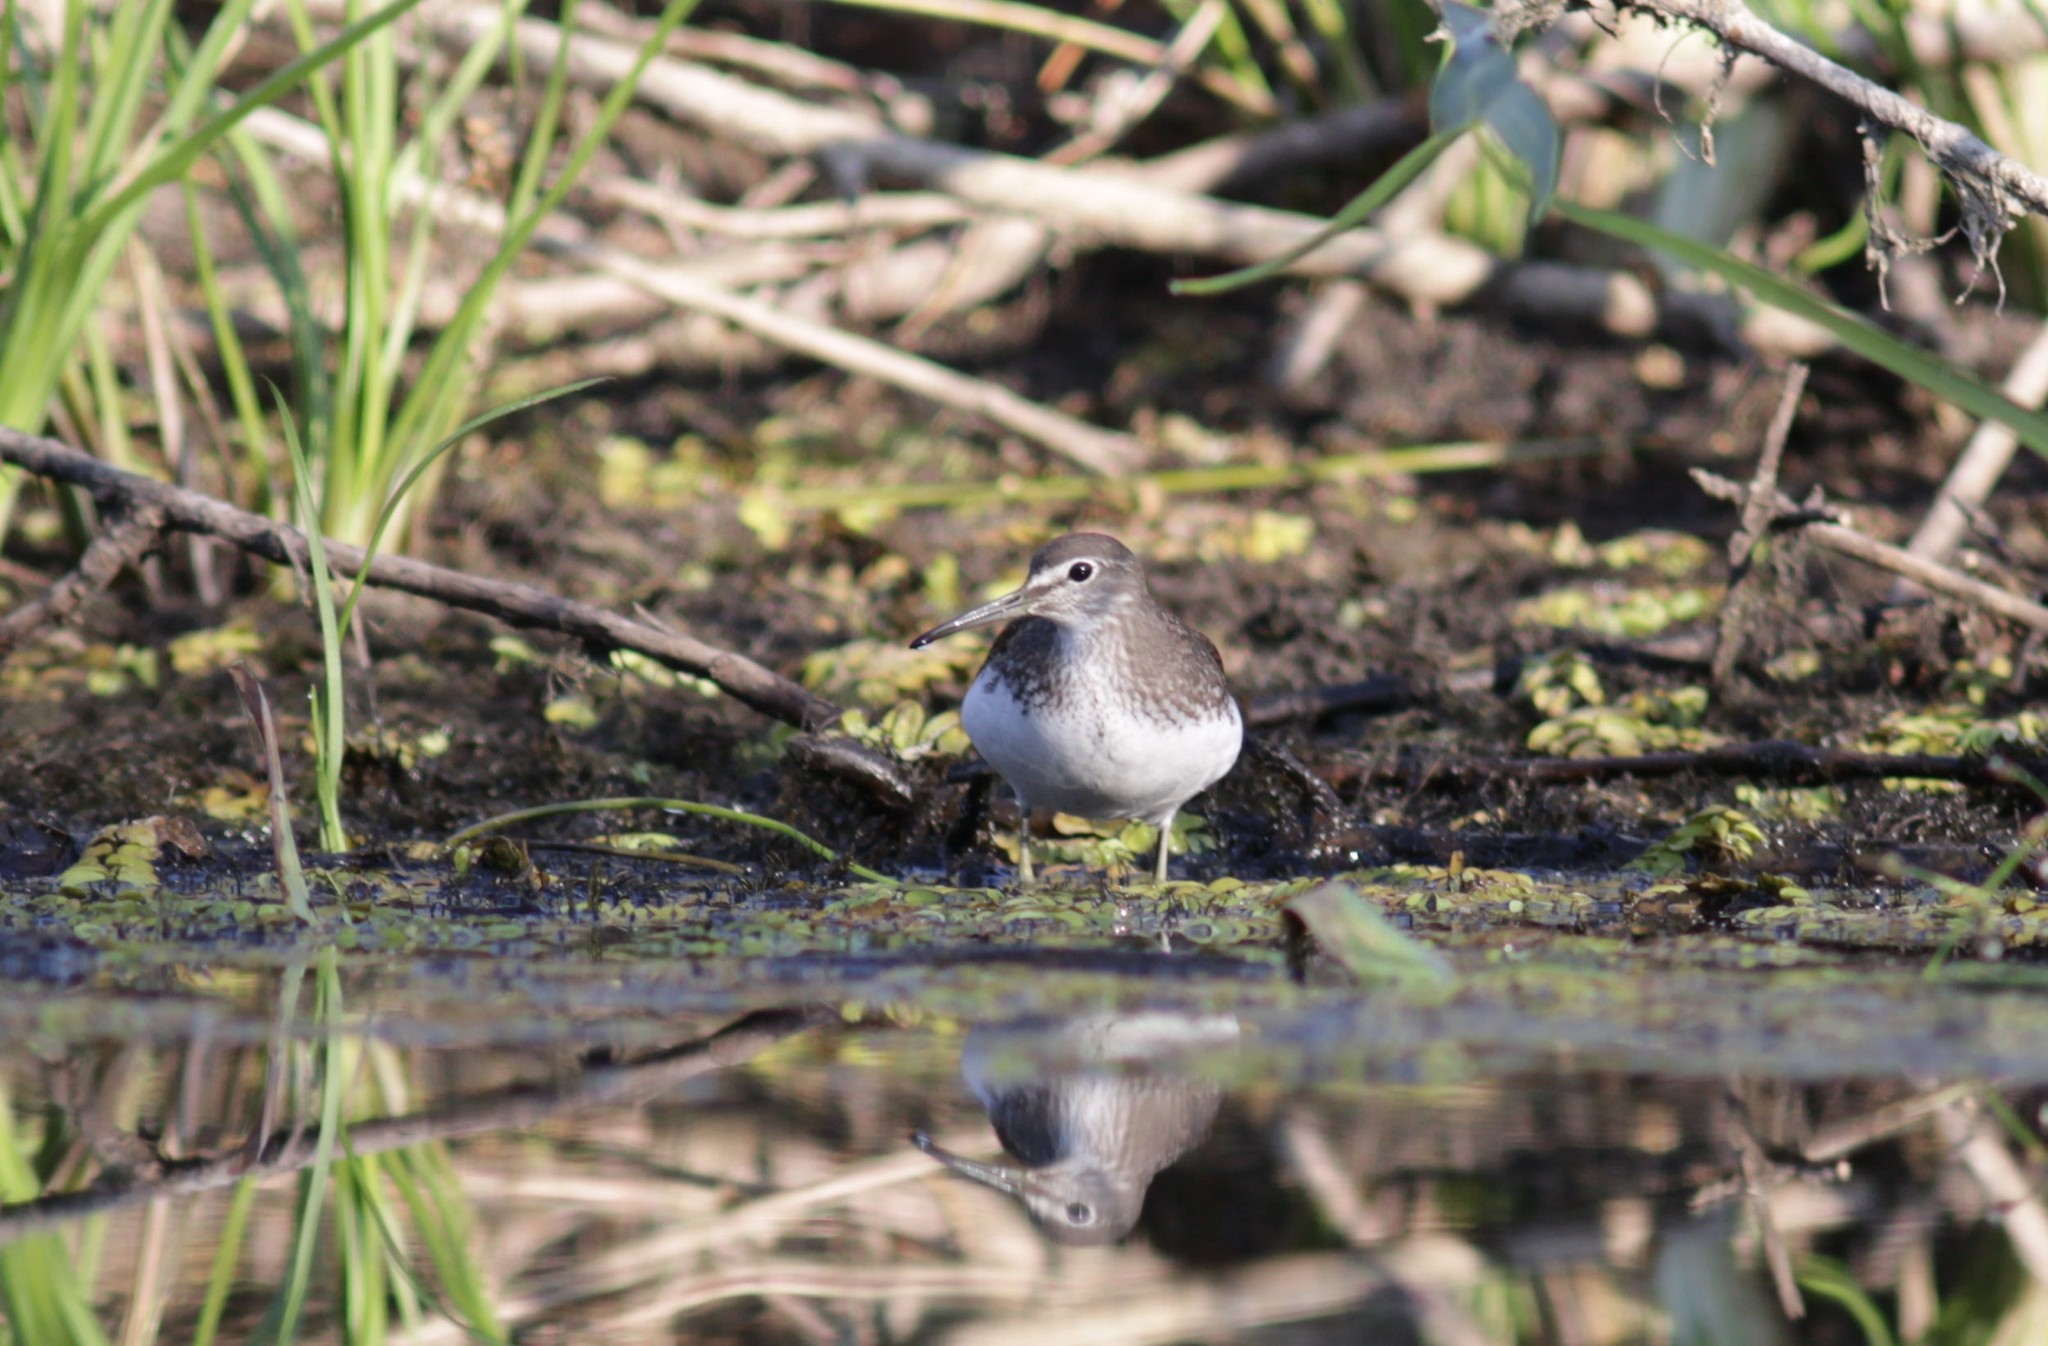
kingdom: Animalia
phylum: Chordata
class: Aves
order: Charadriiformes
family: Scolopacidae
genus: Tringa
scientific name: Tringa ochropus
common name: Green sandpiper
